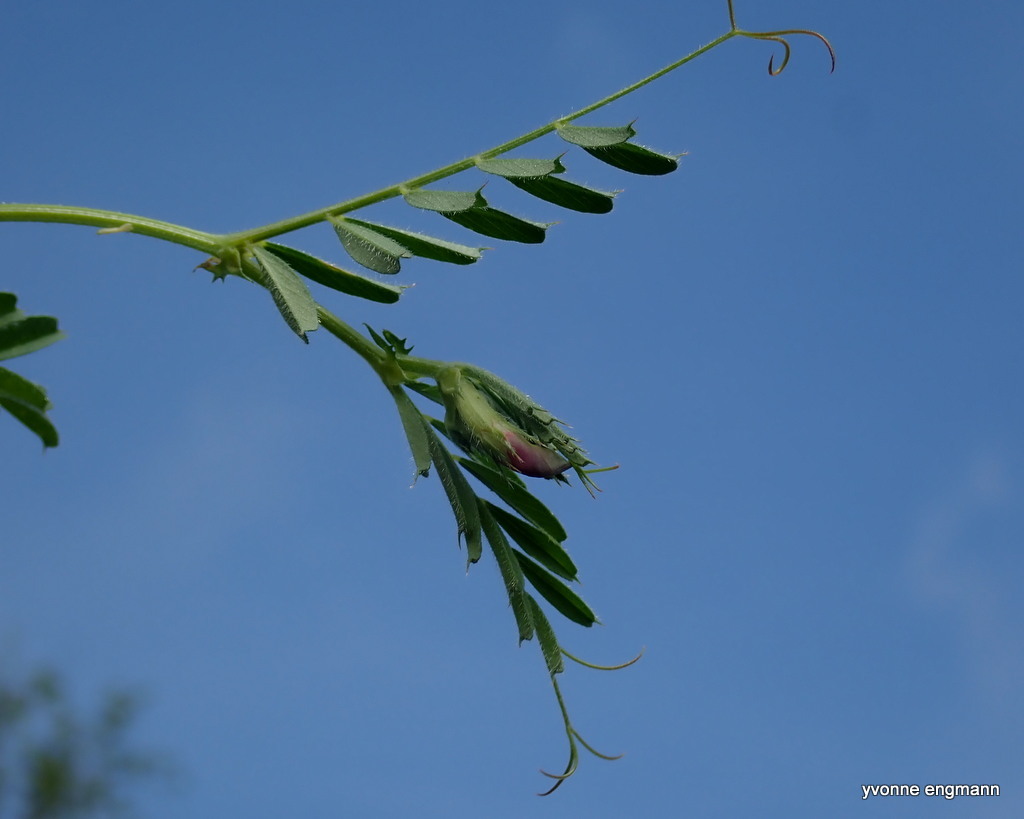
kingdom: Plantae
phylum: Tracheophyta
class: Magnoliopsida
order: Fabales
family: Fabaceae
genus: Vicia
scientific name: Vicia sativa
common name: Garden vetch
